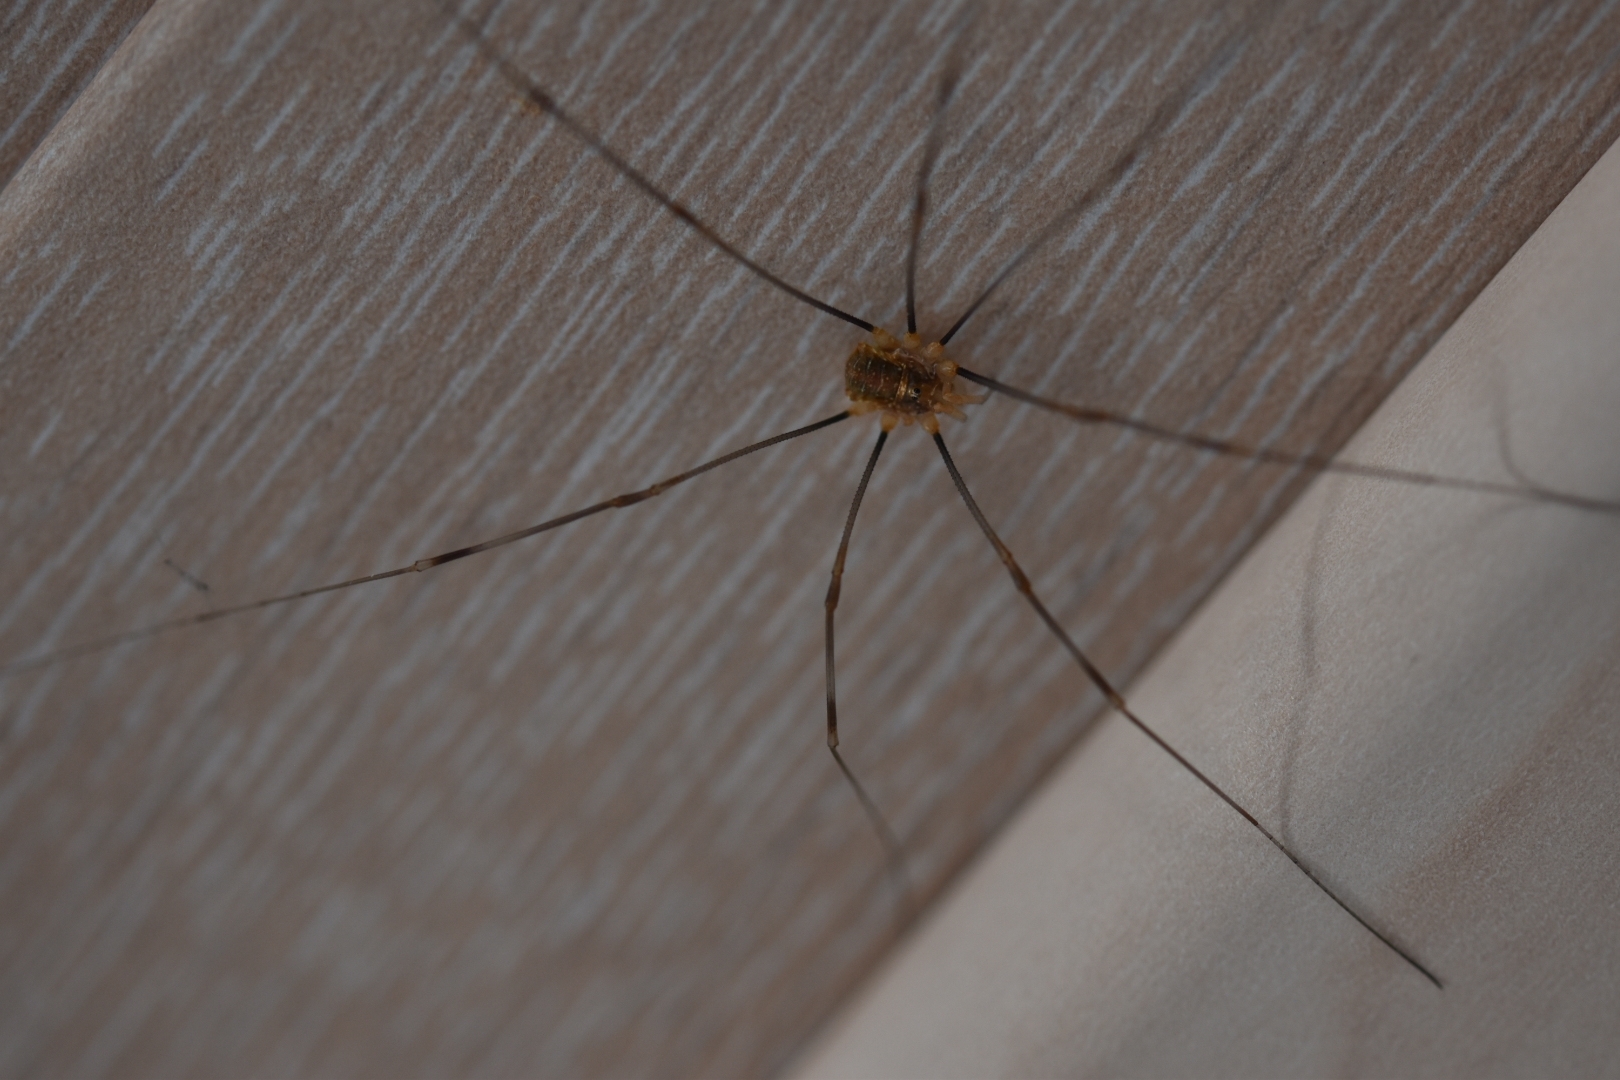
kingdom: Animalia
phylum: Arthropoda
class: Arachnida
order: Opiliones
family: Phalangiidae
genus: Opilio
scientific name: Opilio canestrinii
